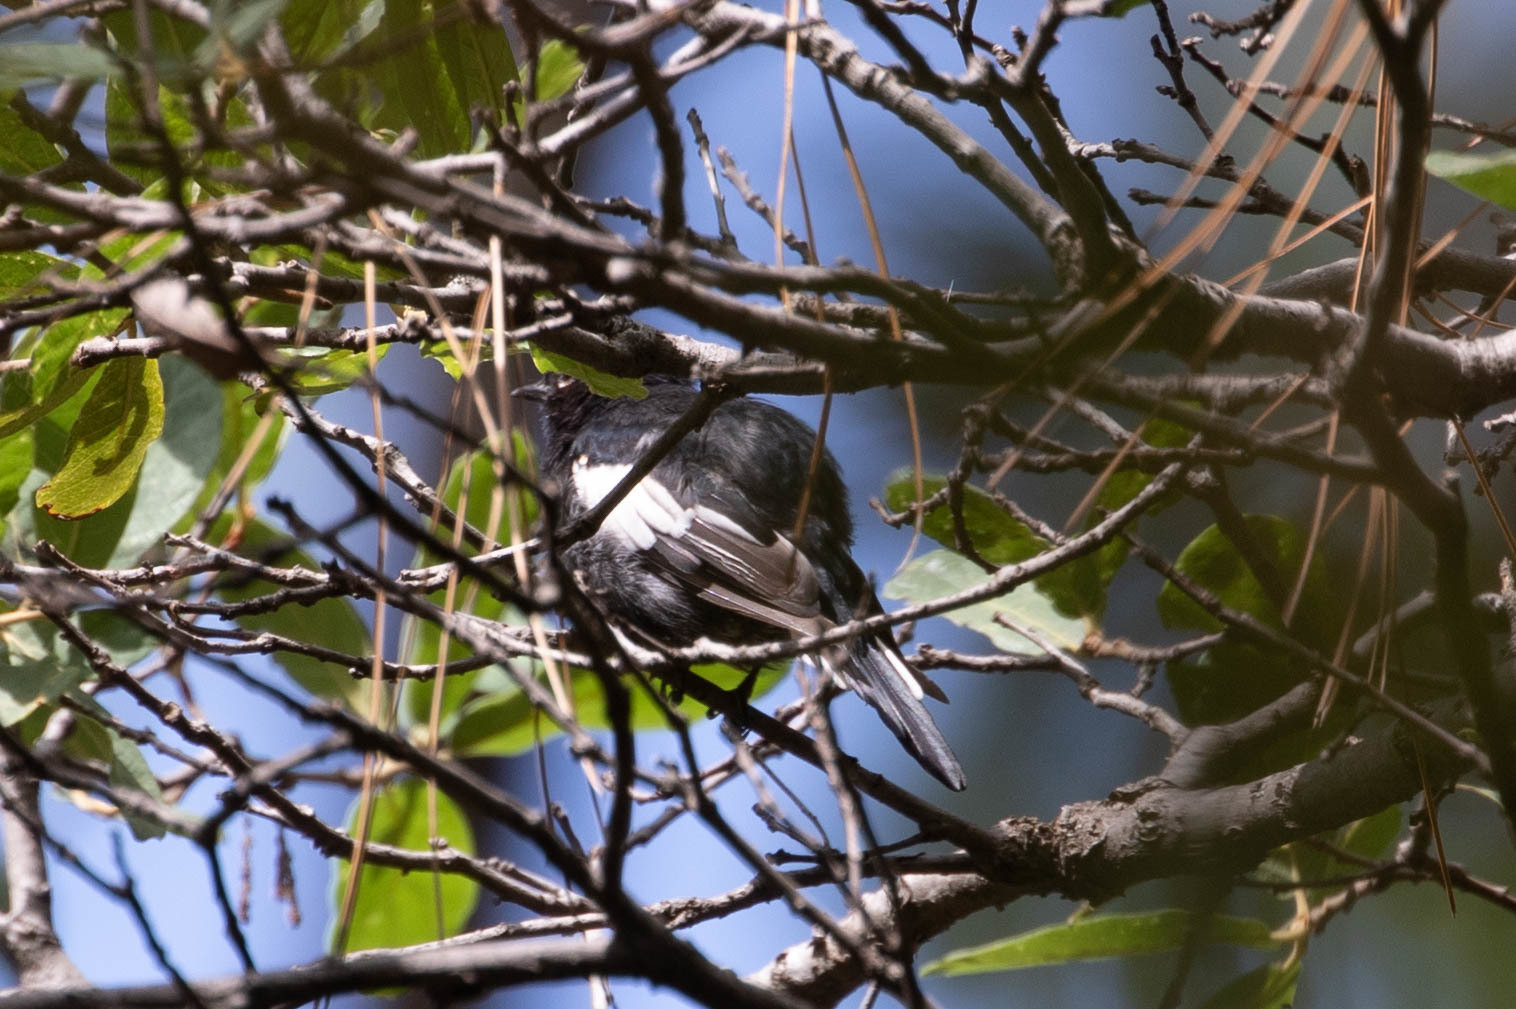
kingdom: Animalia
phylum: Chordata
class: Aves
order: Passeriformes
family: Parulidae
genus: Myioborus
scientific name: Myioborus pictus
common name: Painted whitestart
